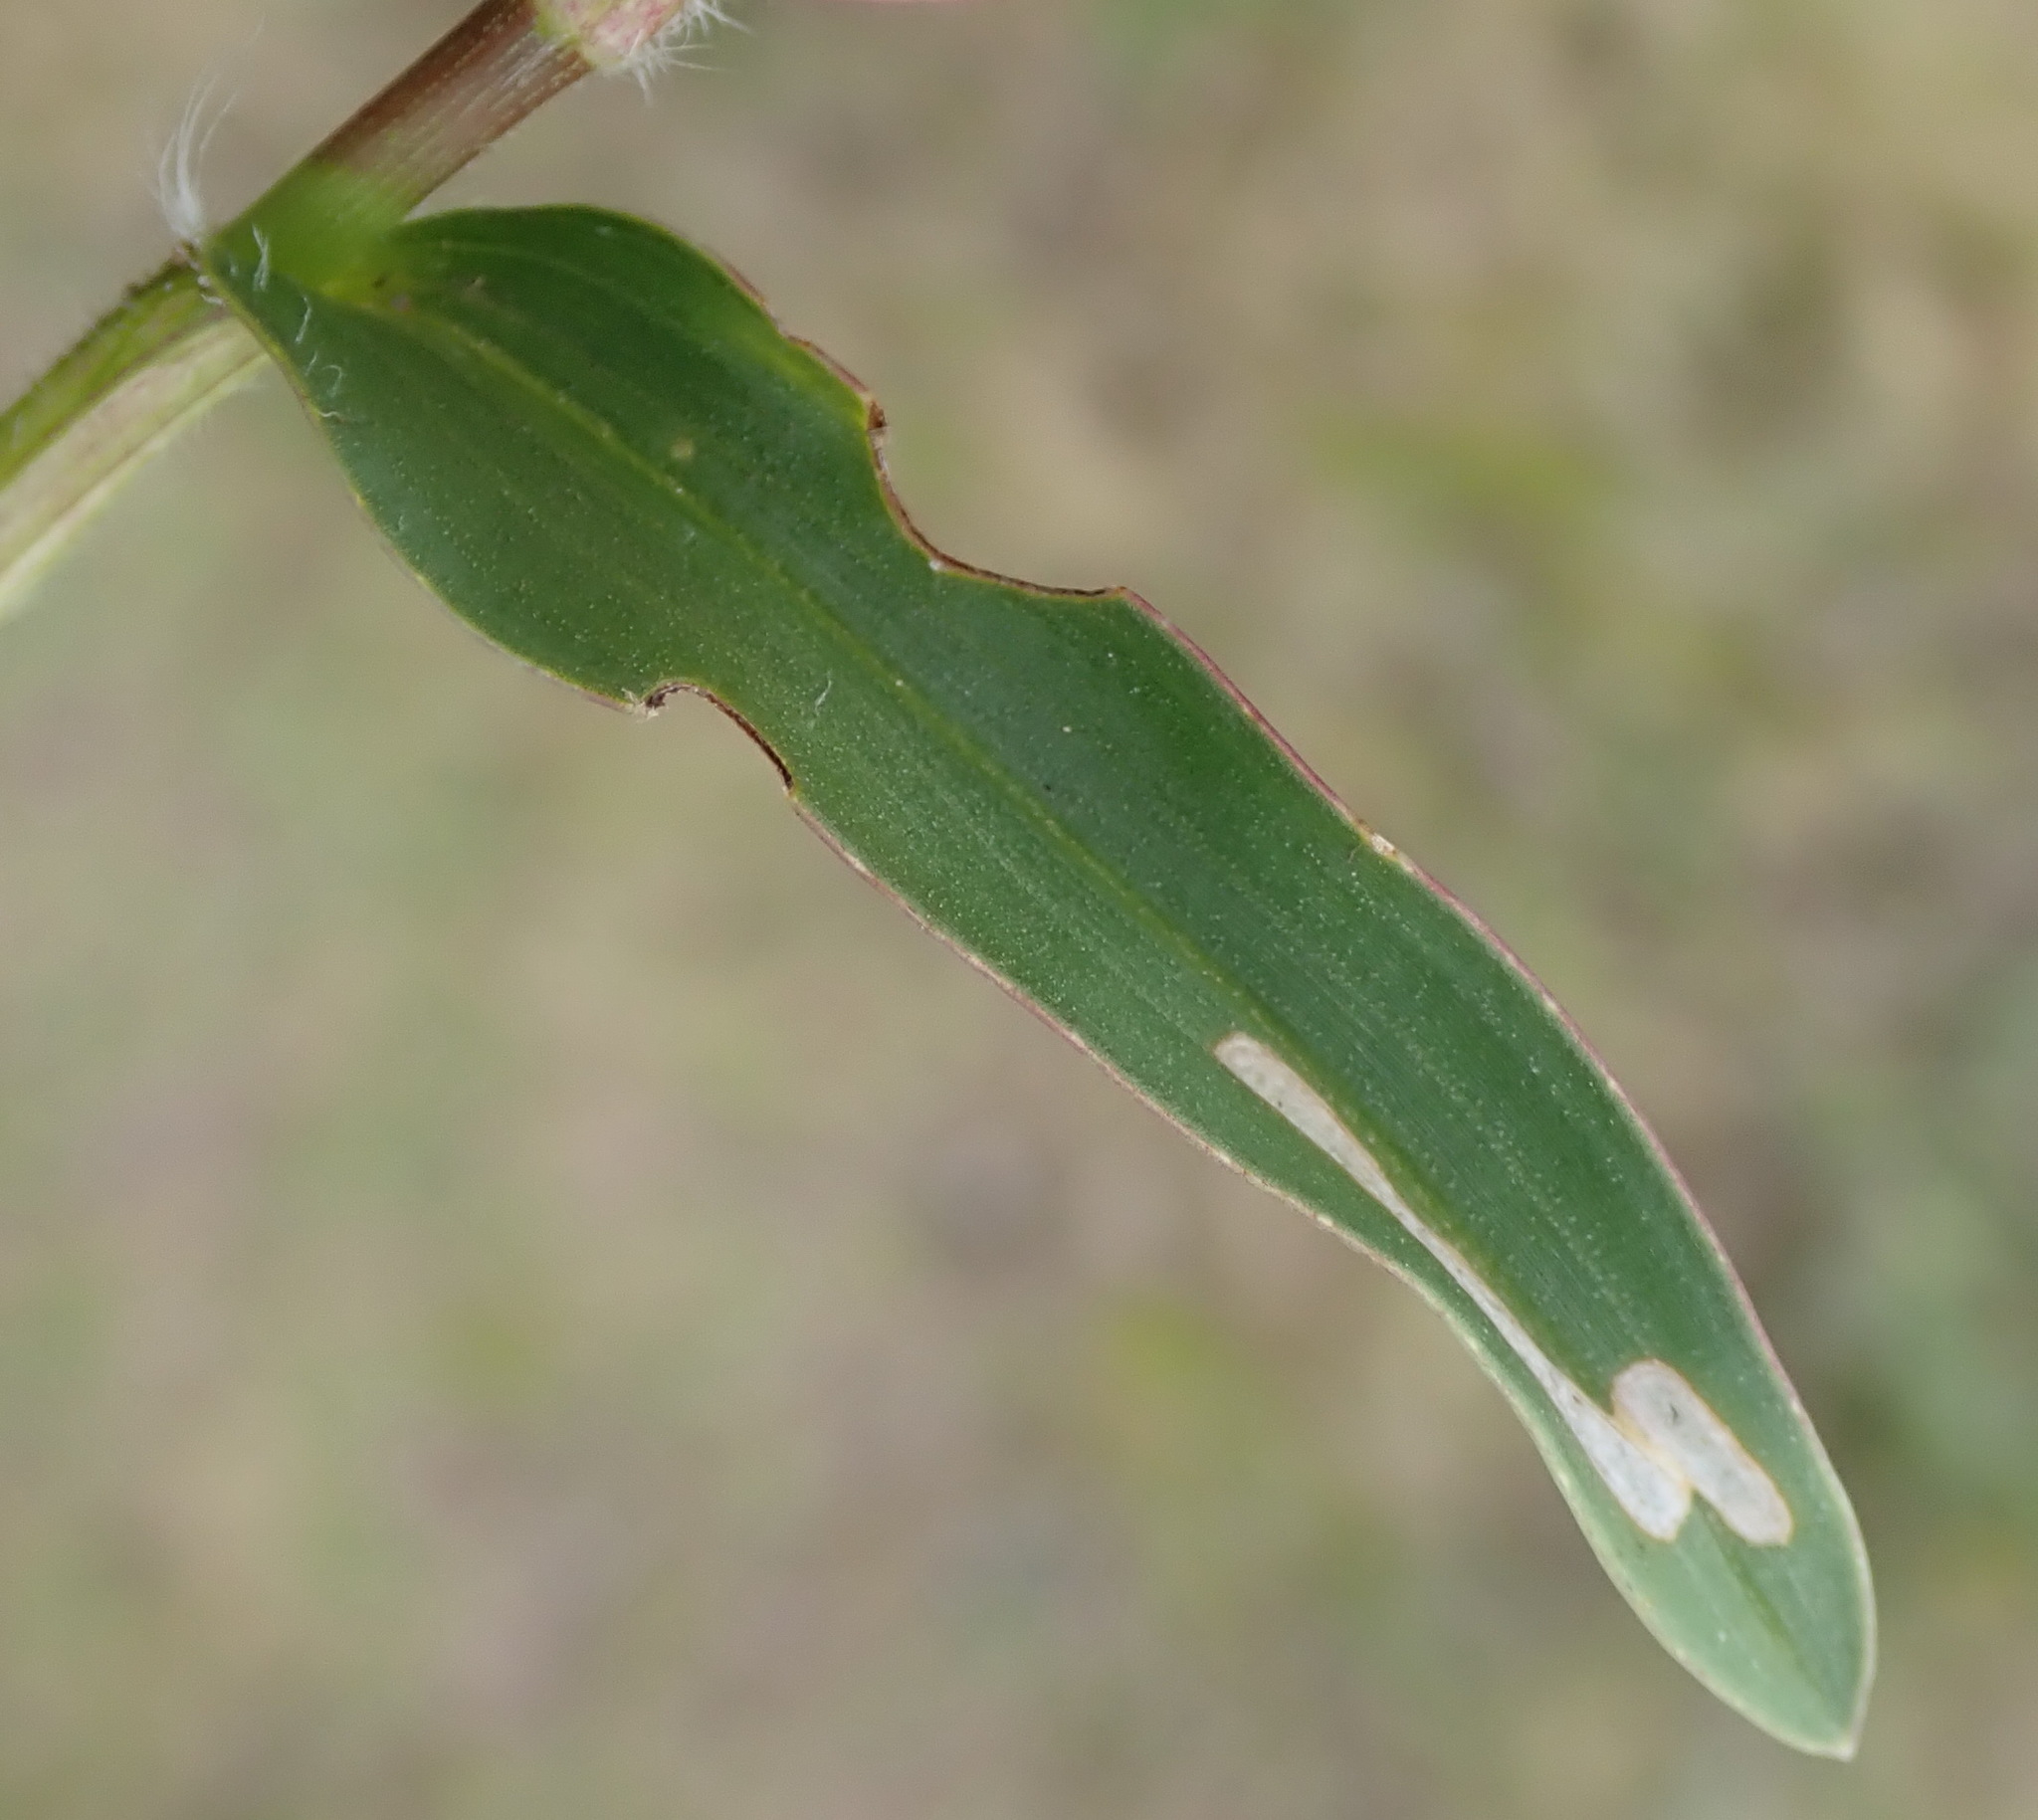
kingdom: Plantae
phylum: Tracheophyta
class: Liliopsida
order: Commelinales
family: Commelinaceae
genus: Commelina
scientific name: Commelina africana
